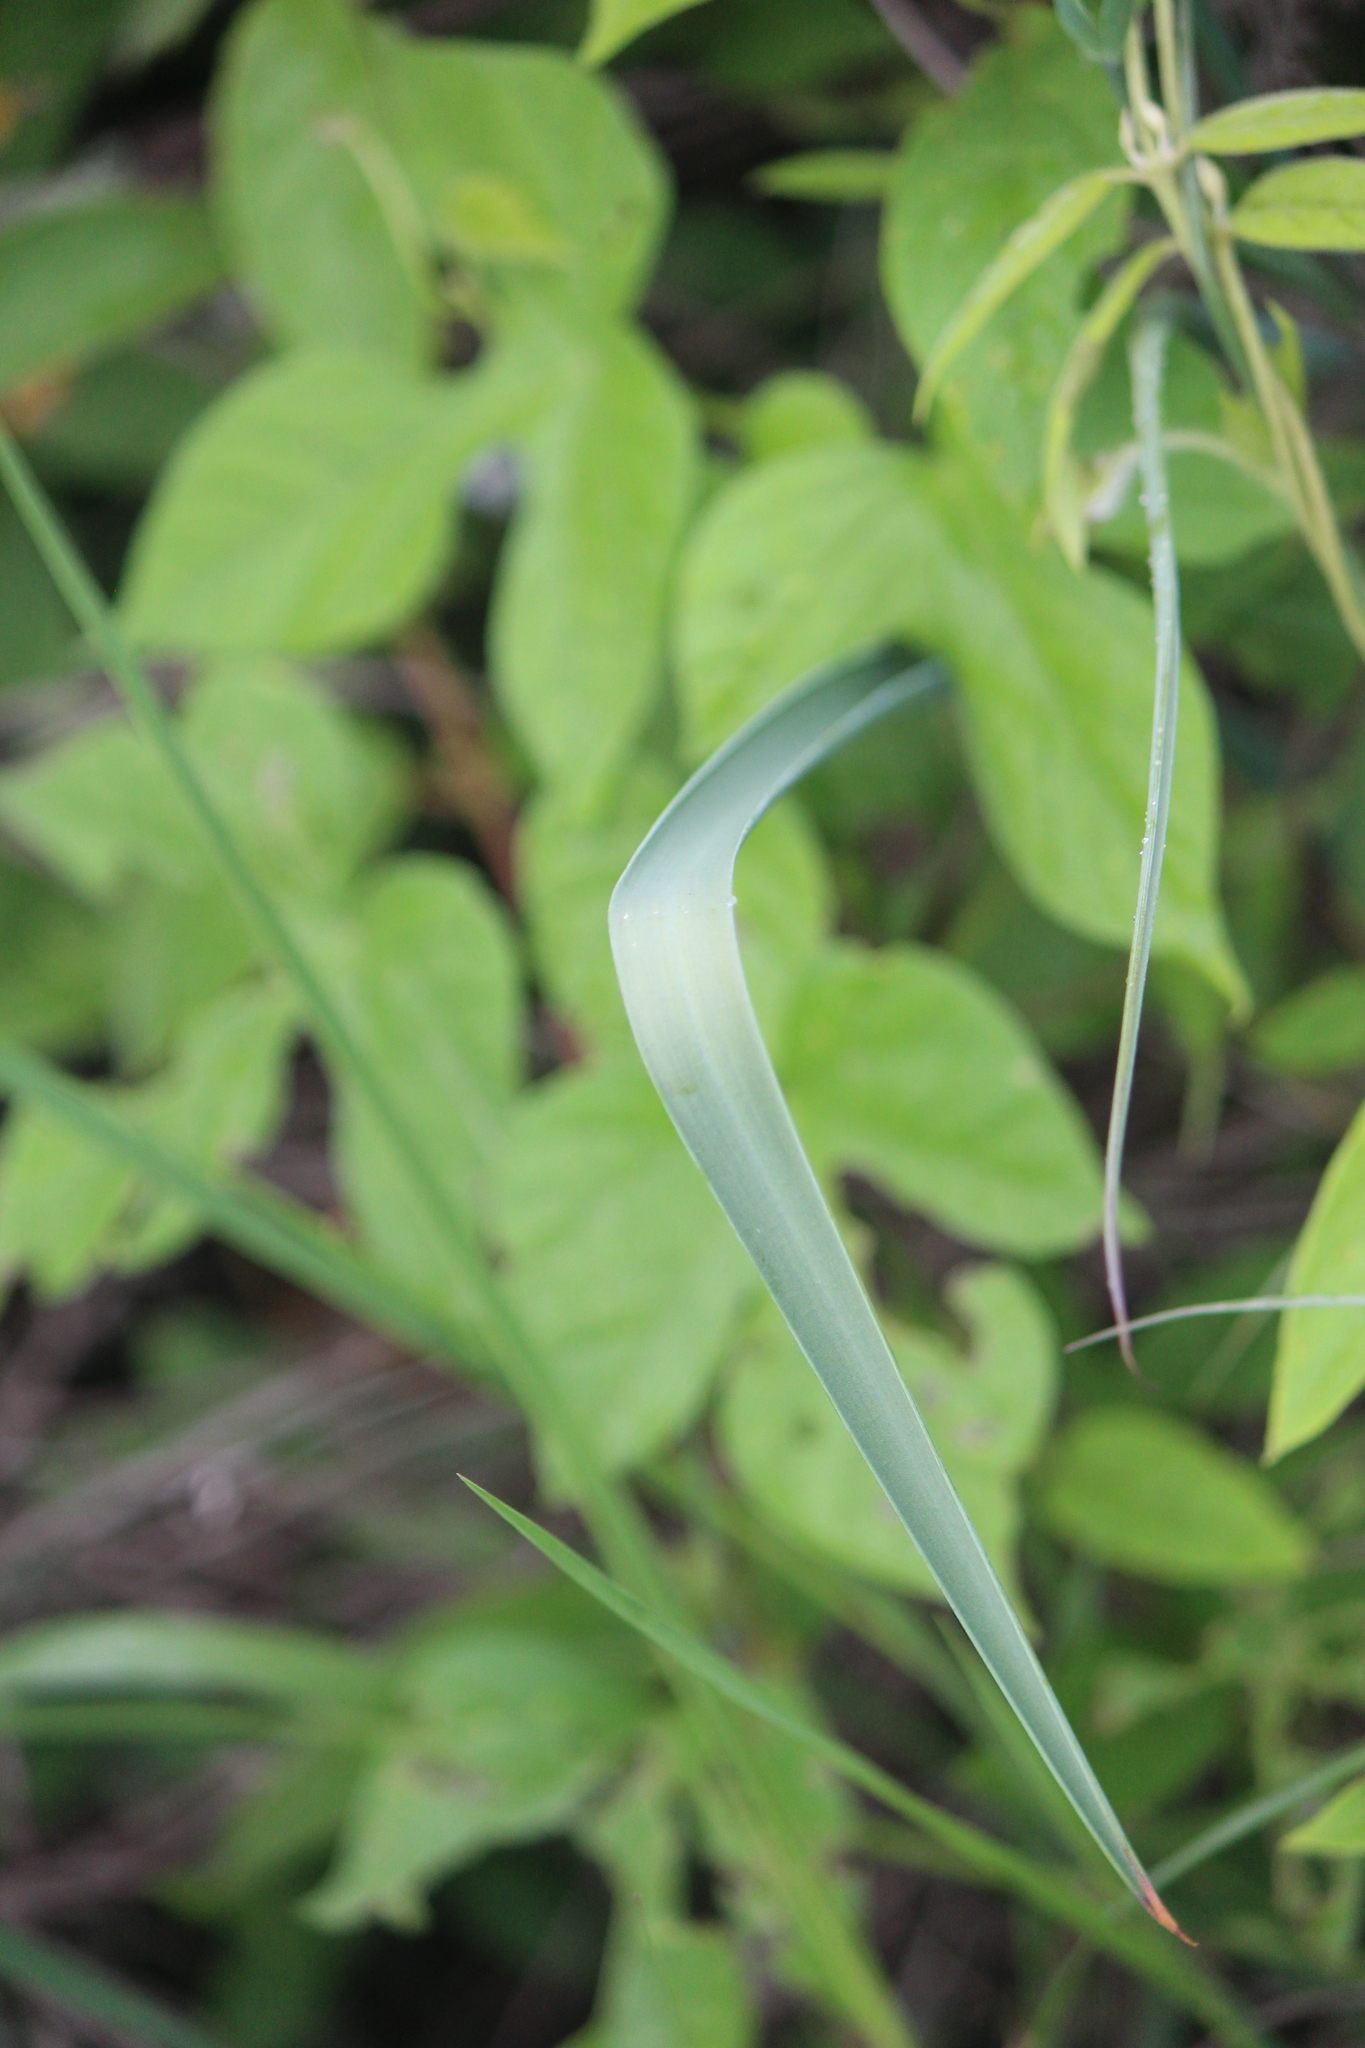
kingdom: Plantae
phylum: Tracheophyta
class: Liliopsida
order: Liliales
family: Liliaceae
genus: Calochortus
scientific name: Calochortus barbatus
